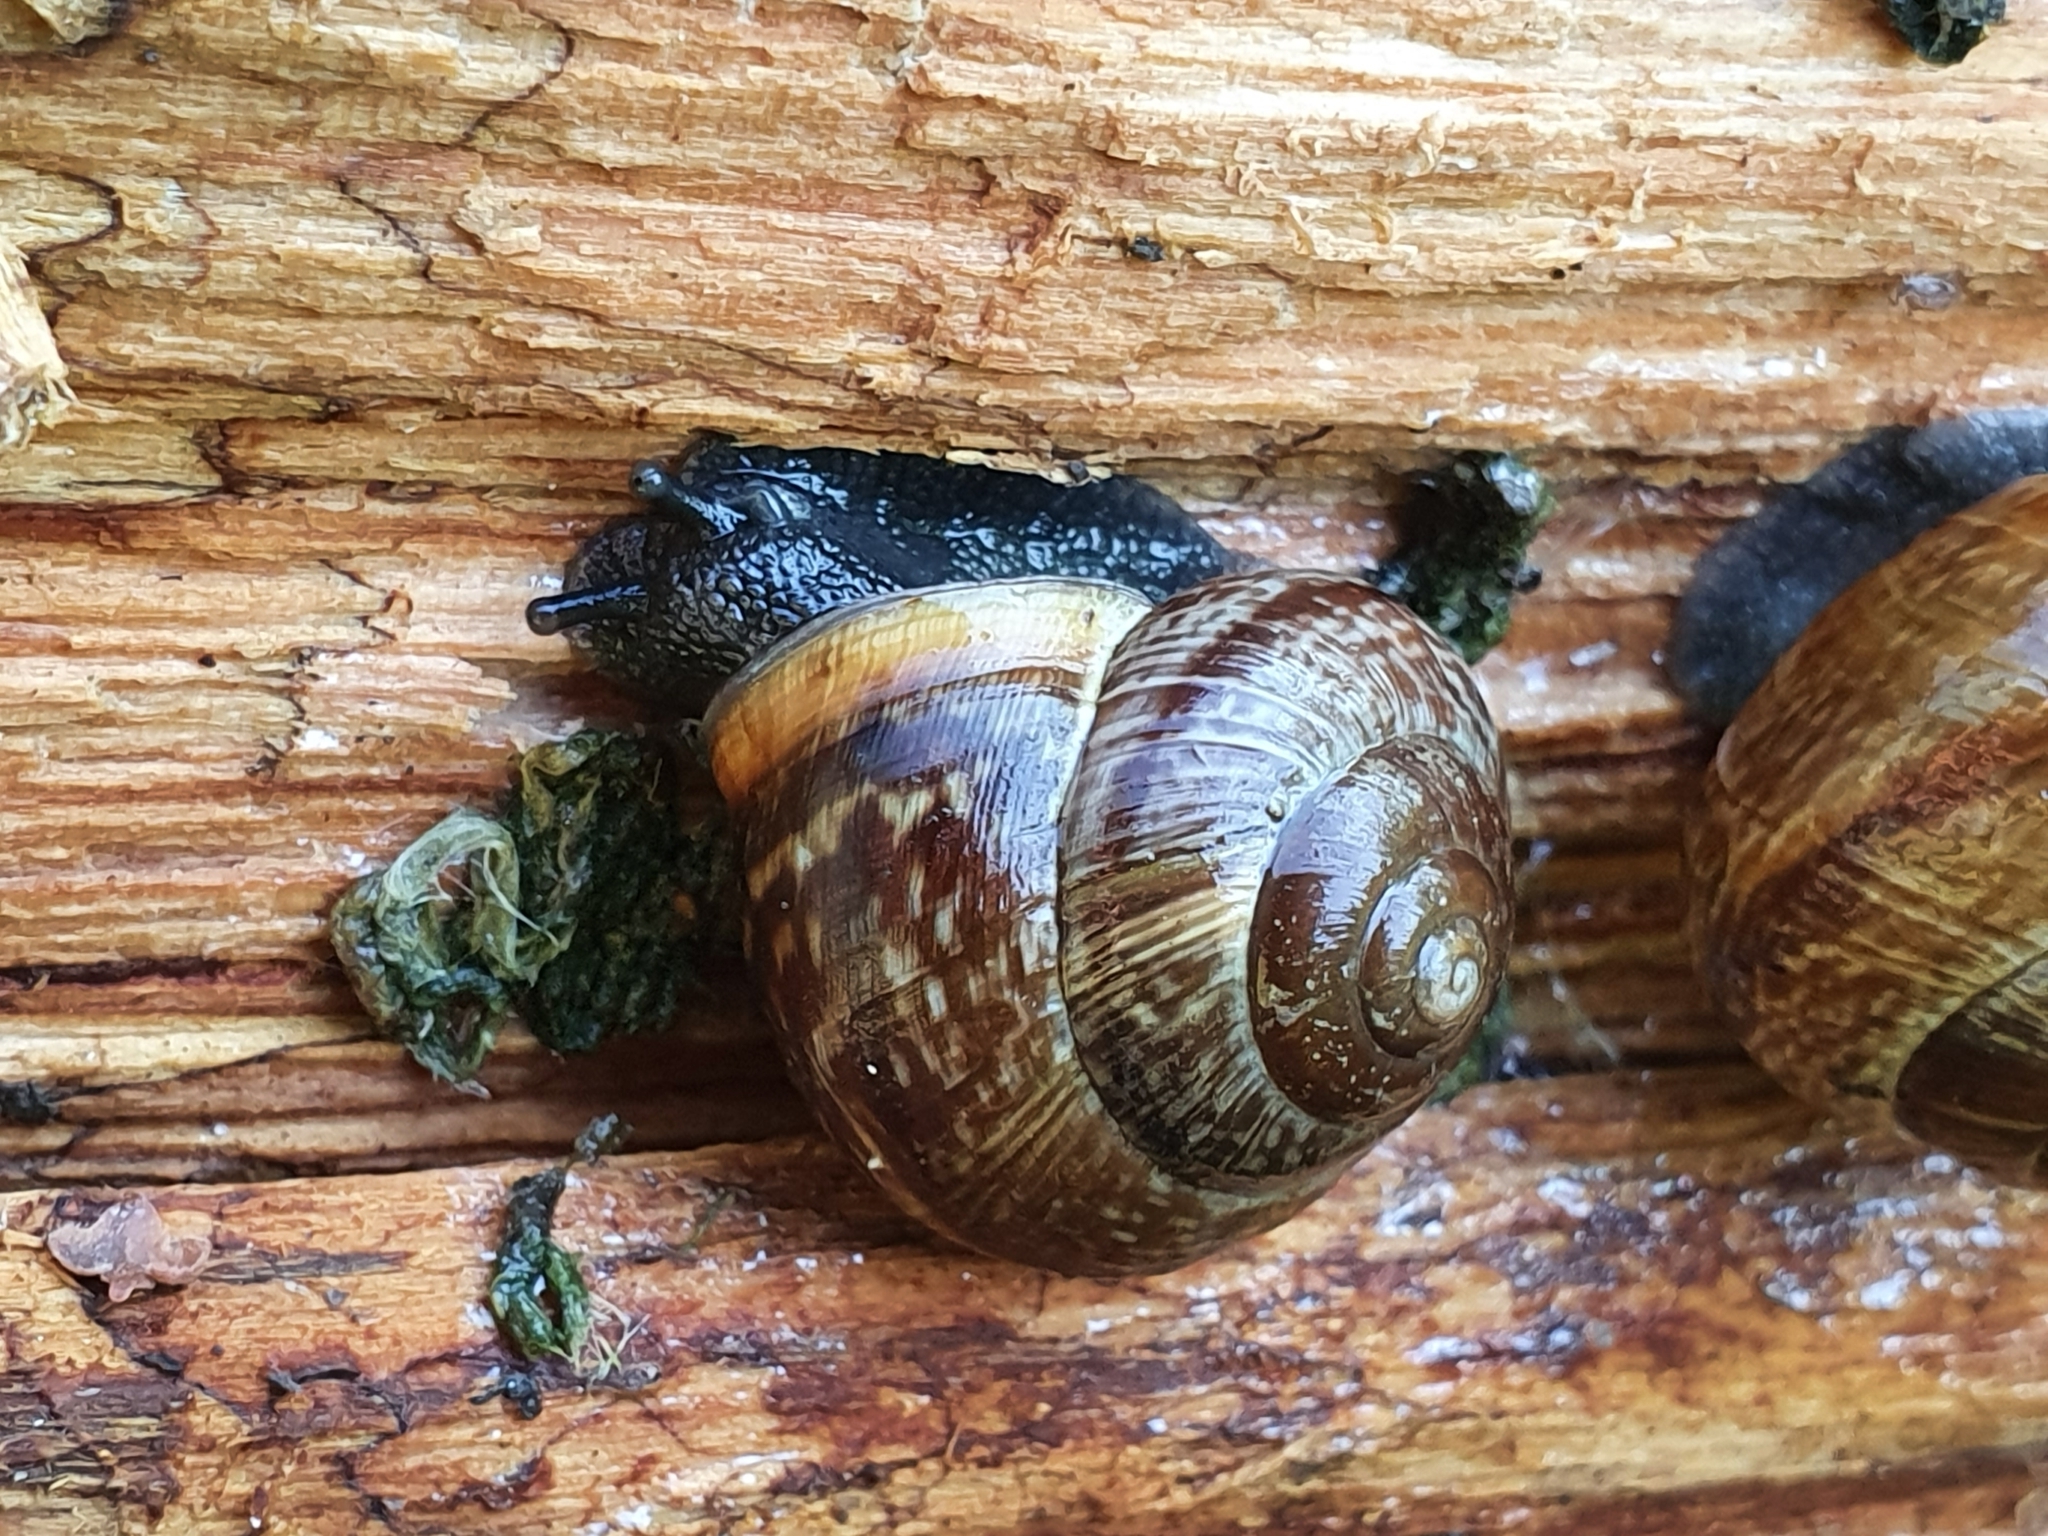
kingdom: Animalia
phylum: Mollusca
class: Gastropoda
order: Stylommatophora
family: Helicidae
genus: Arianta
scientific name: Arianta arbustorum
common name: Copse snail
